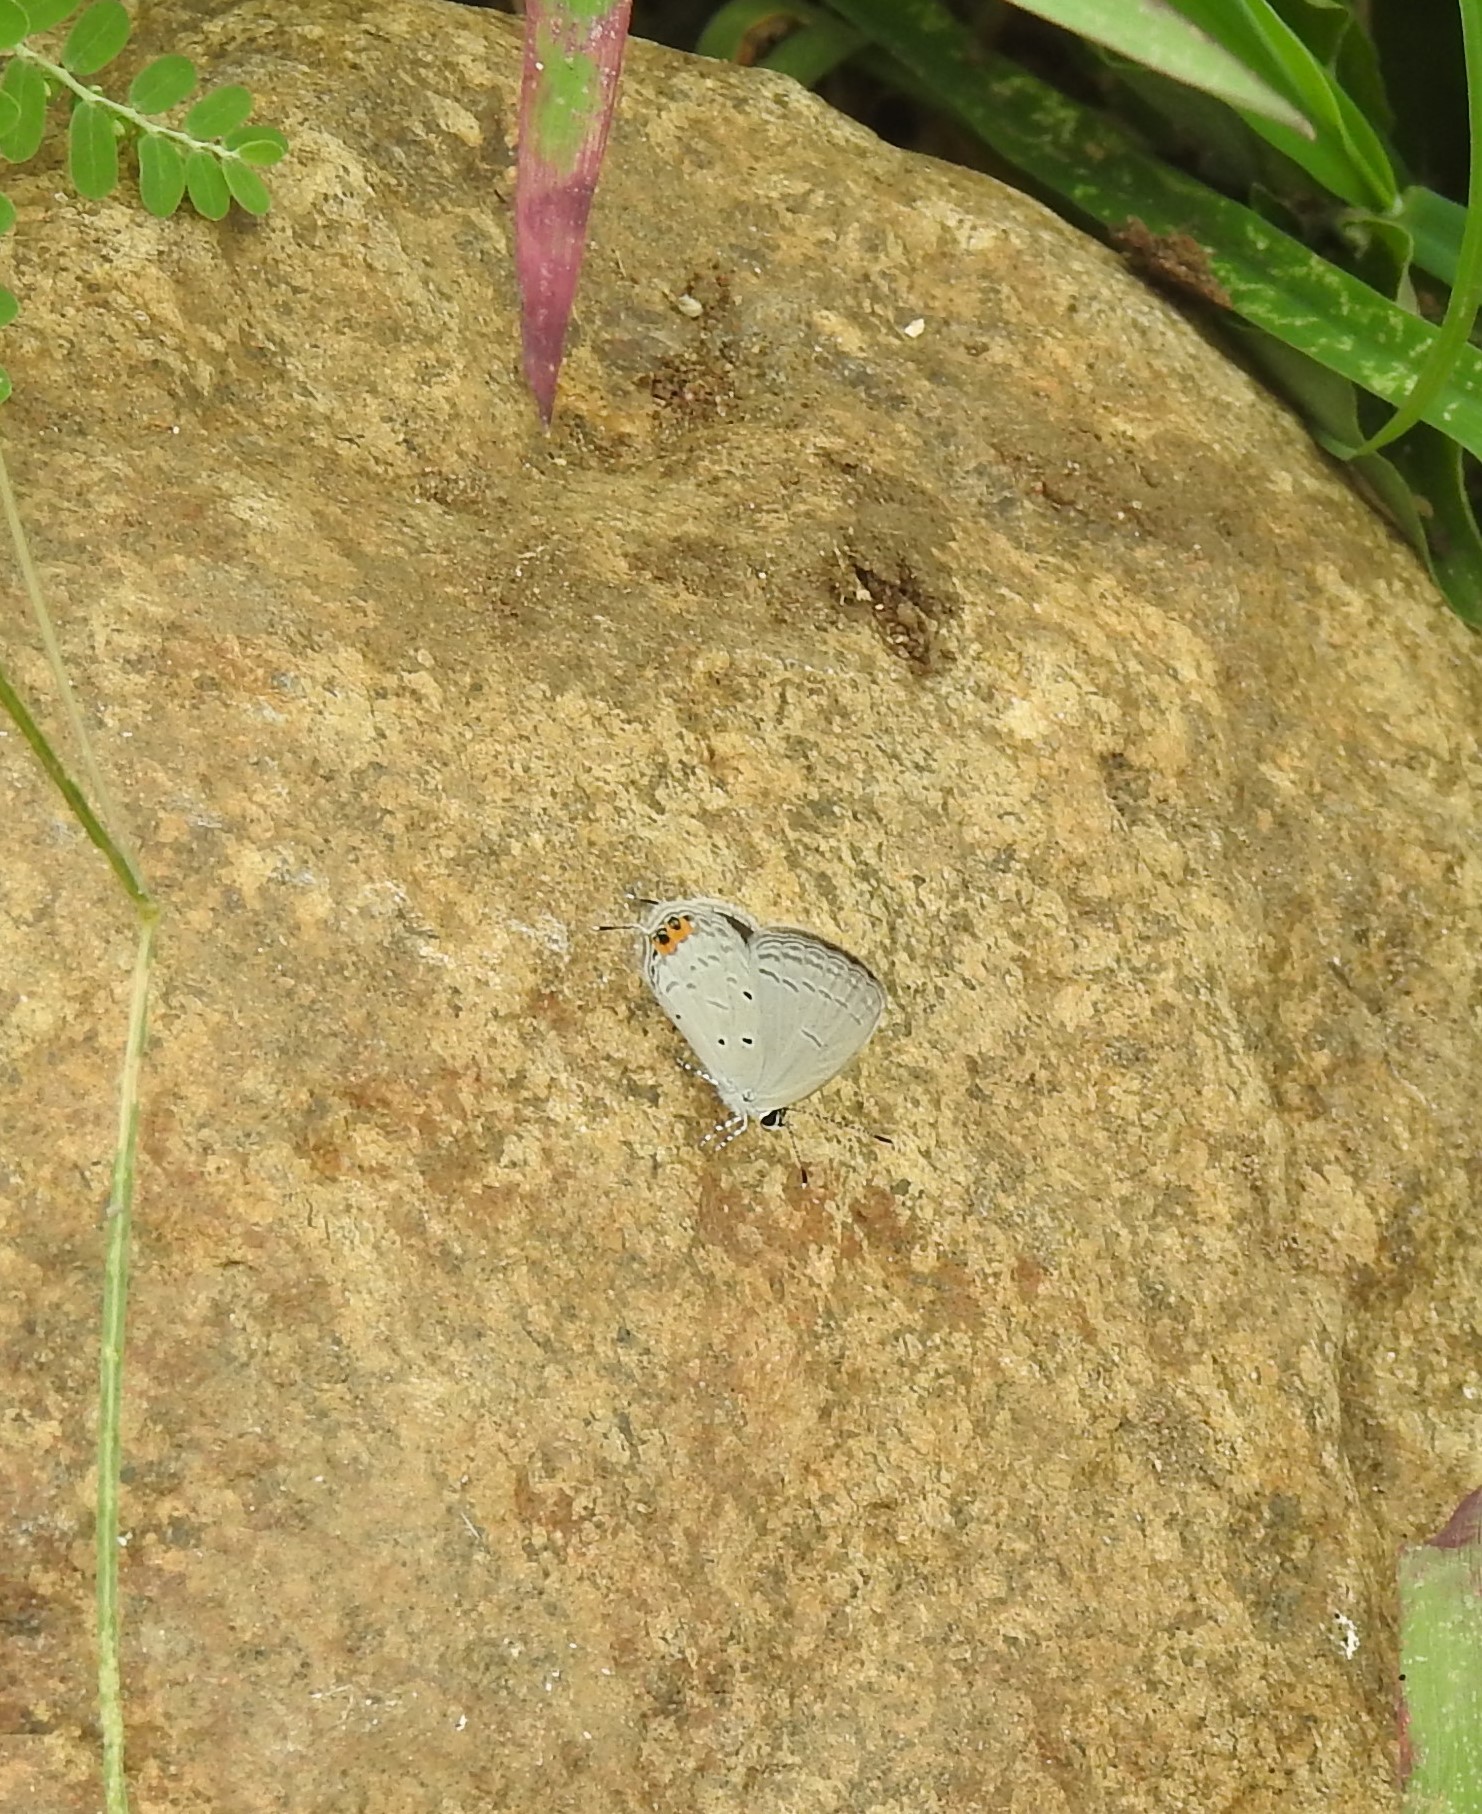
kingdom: Animalia
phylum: Arthropoda
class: Insecta
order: Lepidoptera
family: Lycaenidae
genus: Everes
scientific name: Everes lacturnus
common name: Orange-tipped pea-blue
